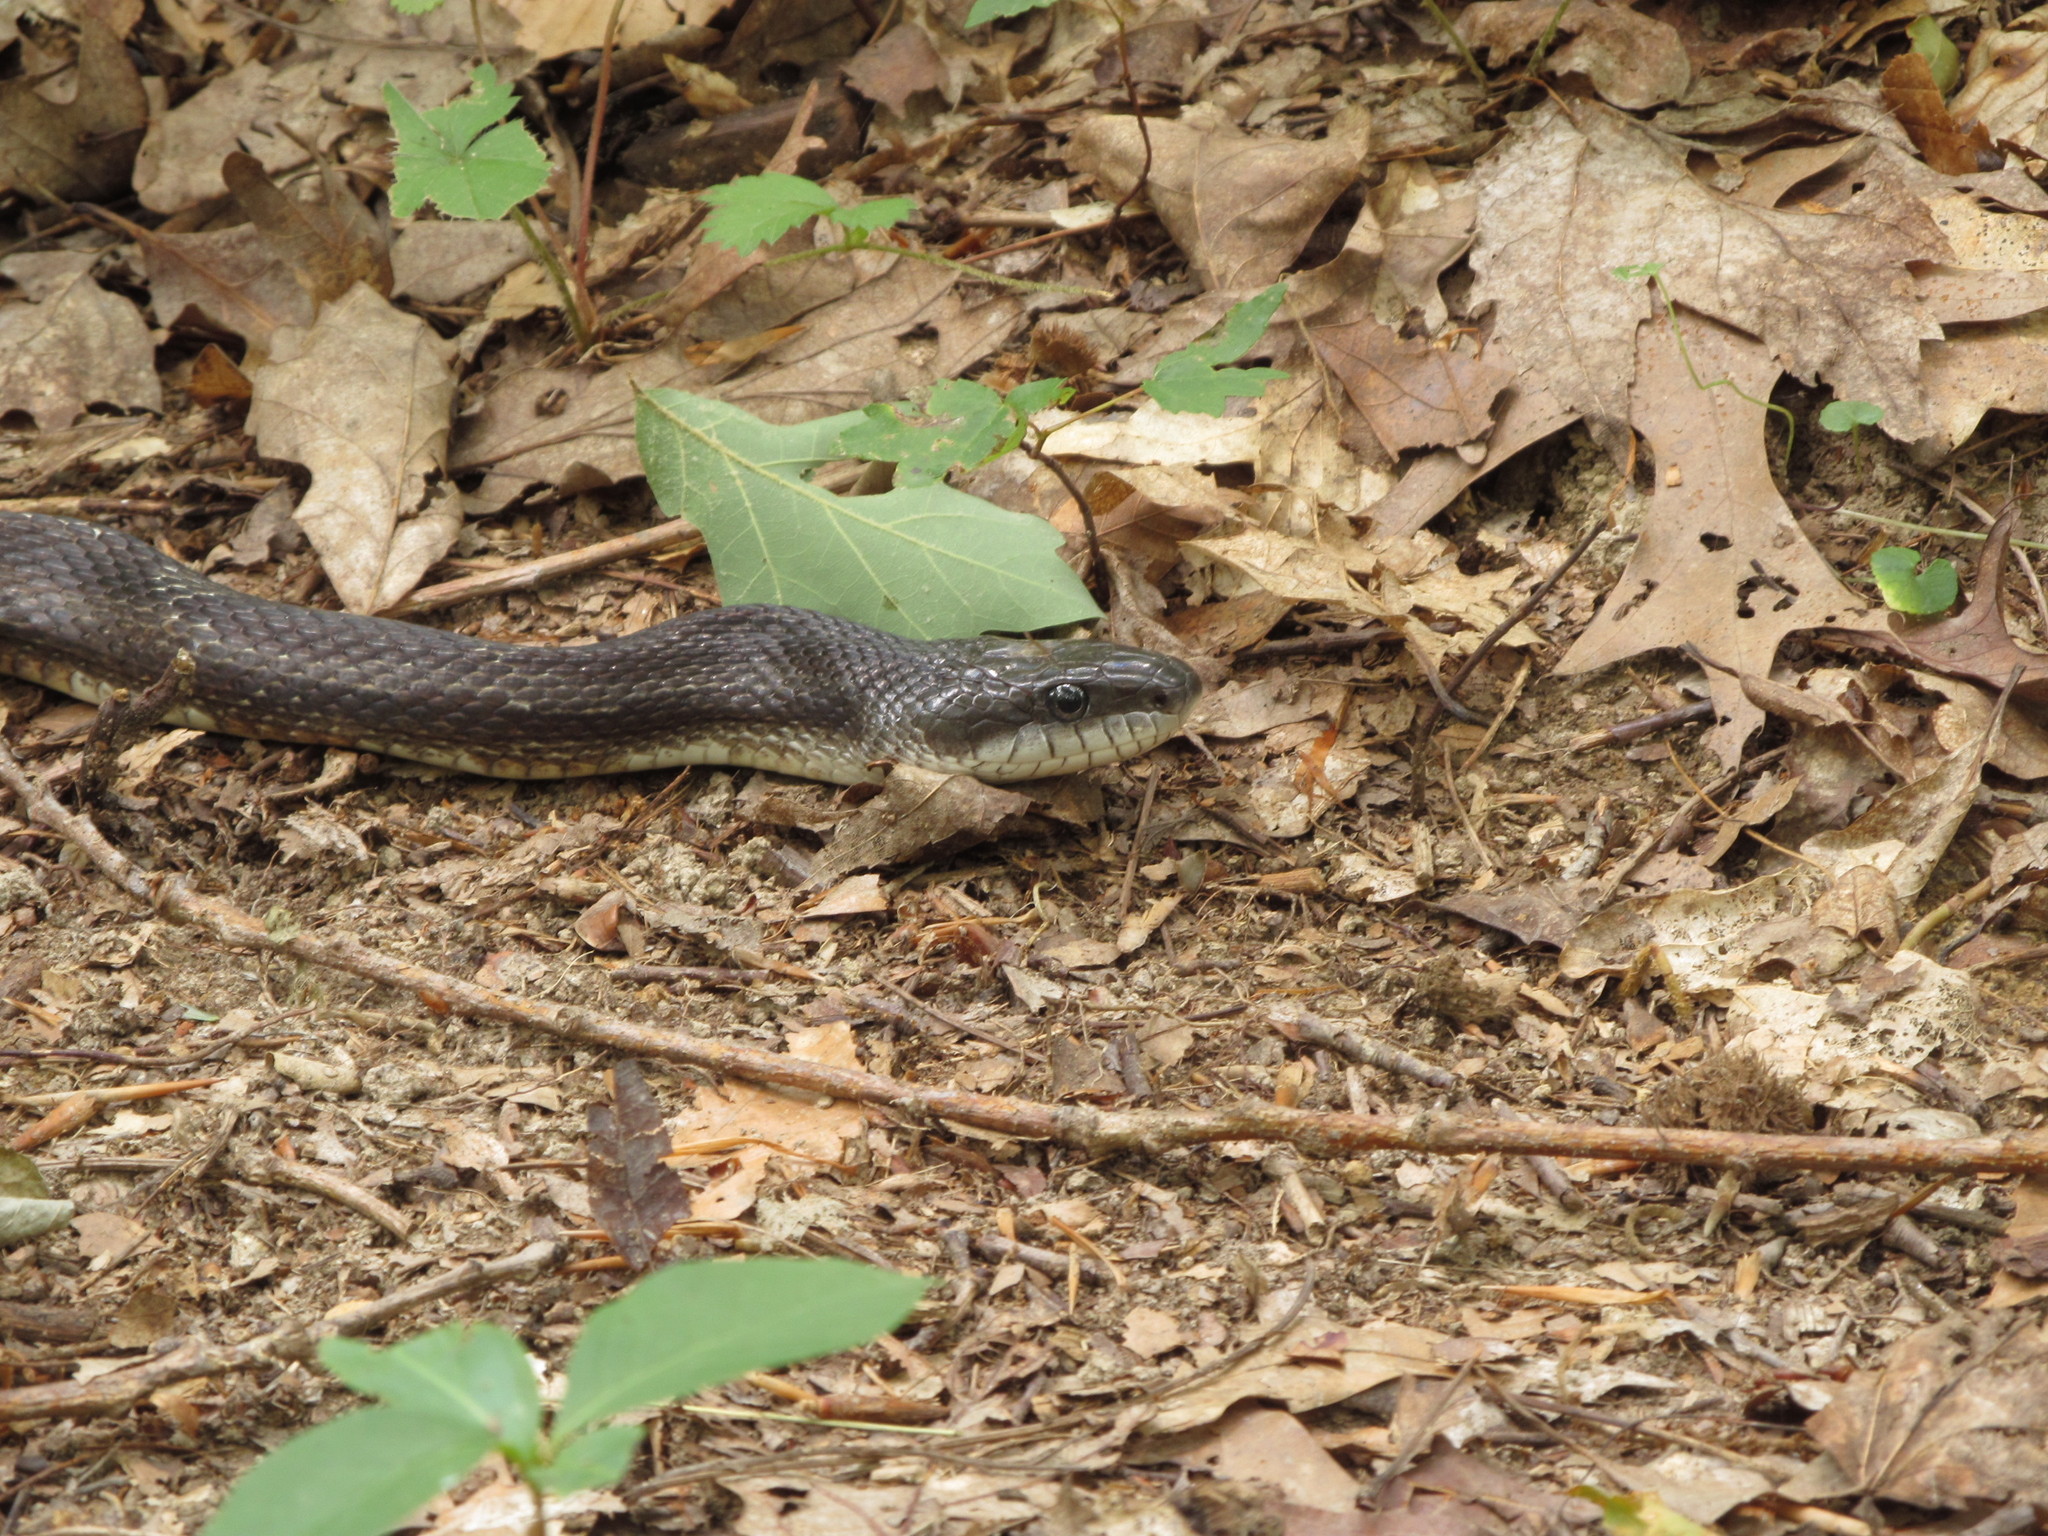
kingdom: Animalia
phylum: Chordata
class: Squamata
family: Colubridae
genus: Pantherophis
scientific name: Pantherophis spiloides
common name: Gray rat snake
